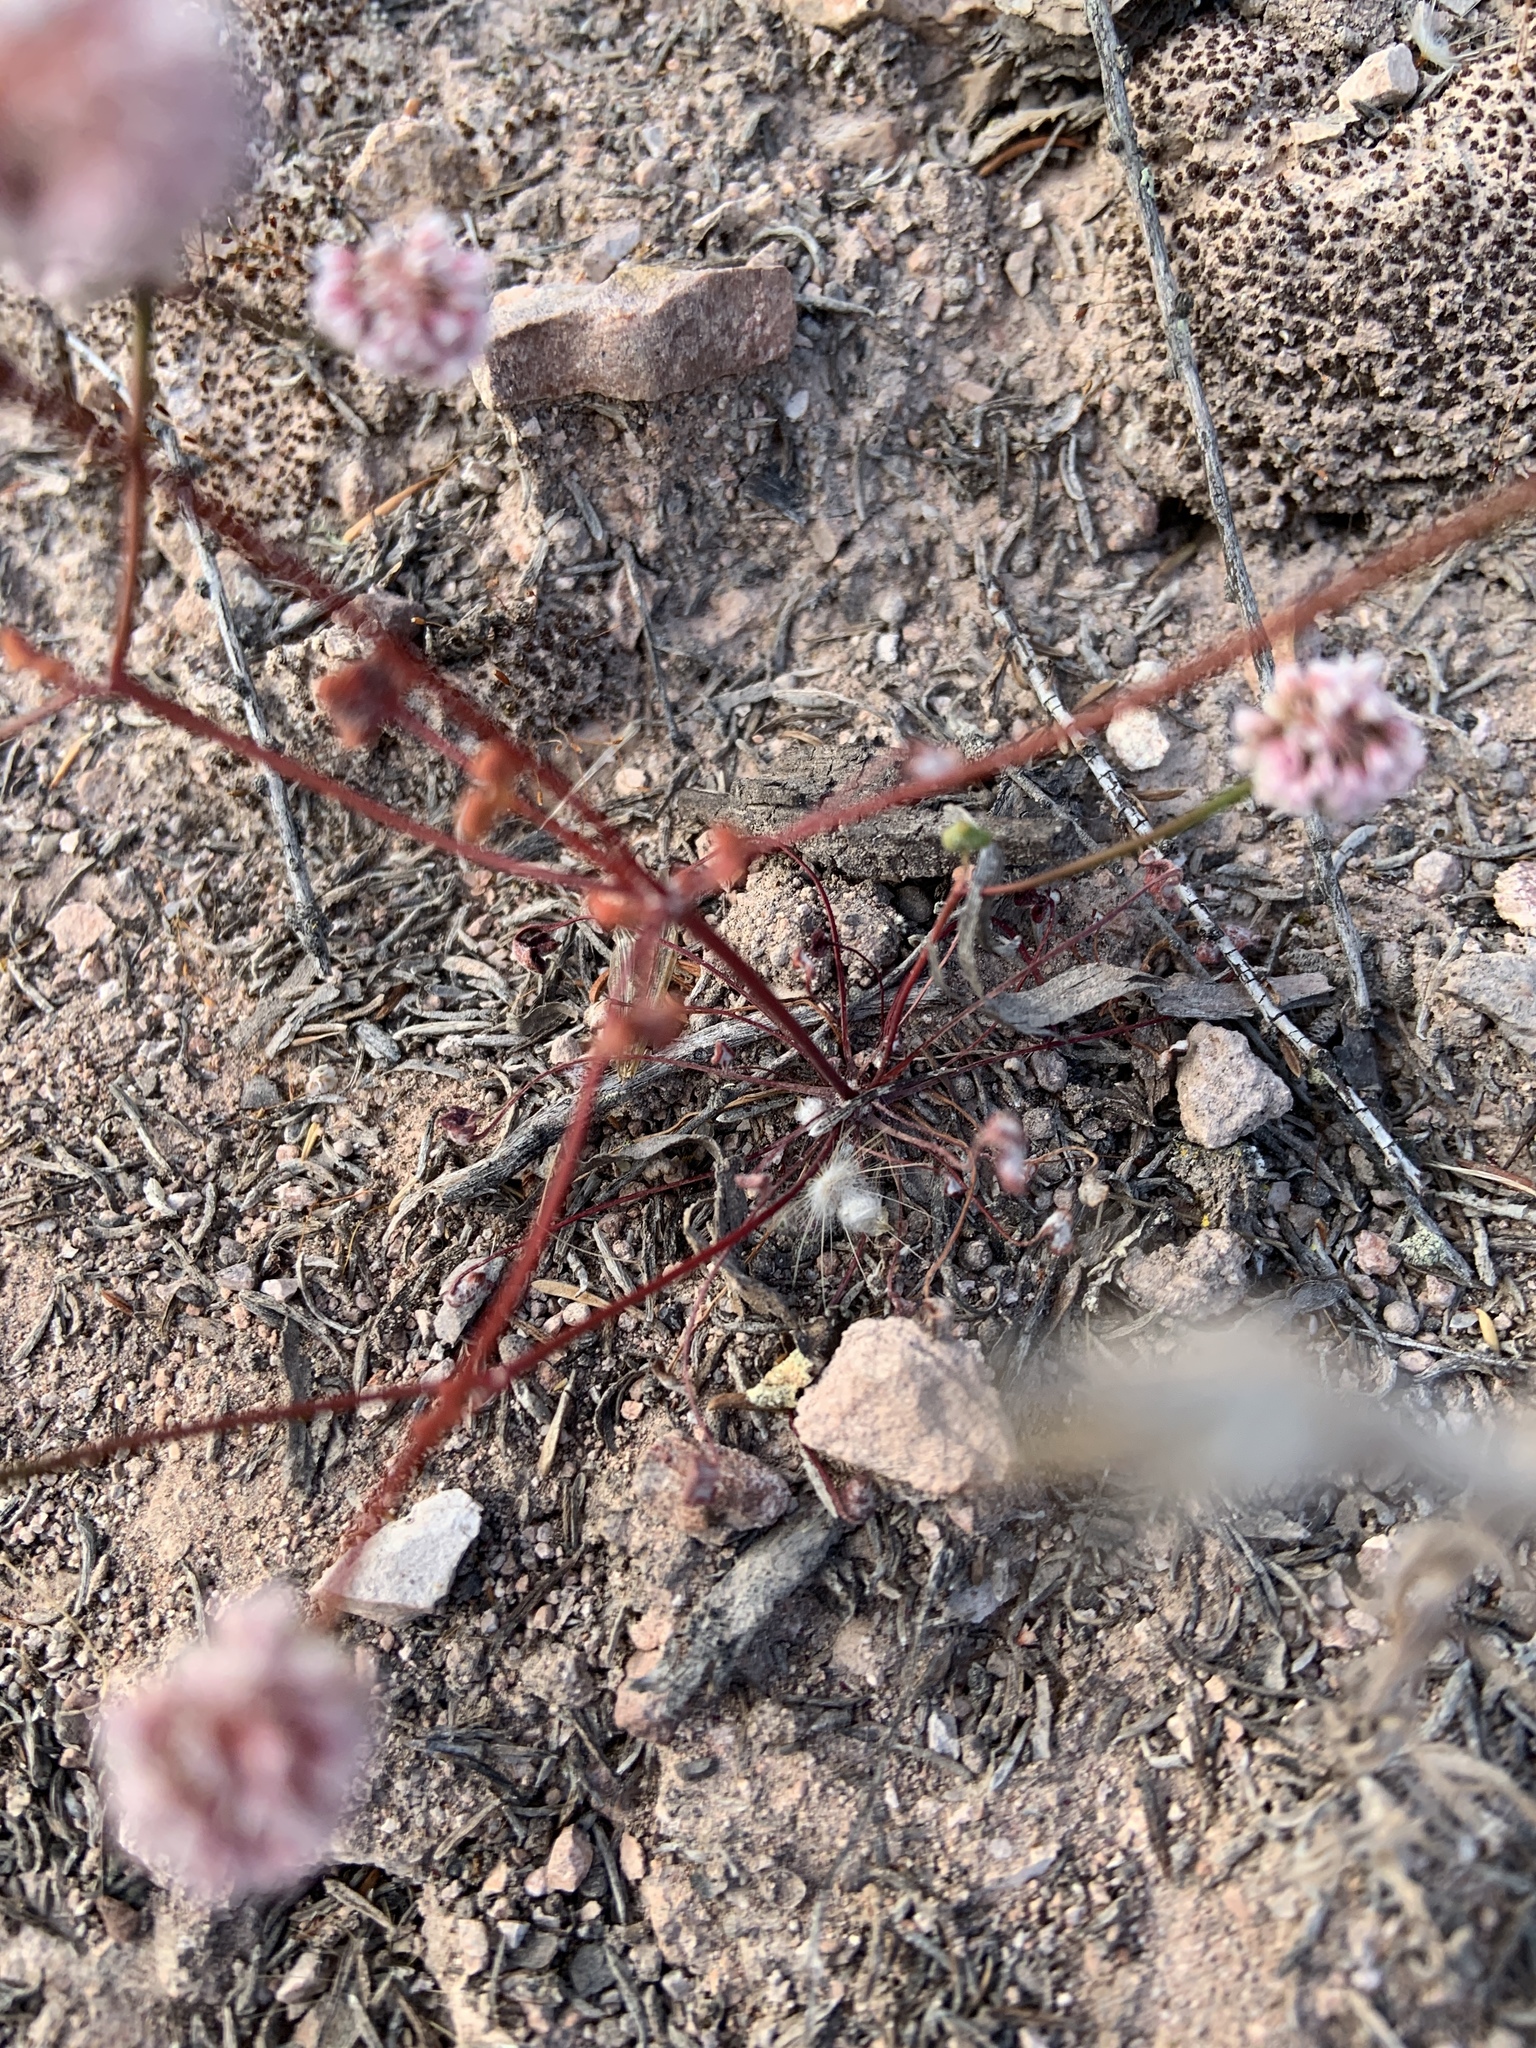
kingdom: Plantae
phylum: Tracheophyta
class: Magnoliopsida
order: Caryophyllales
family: Polygonaceae
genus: Eriogonum
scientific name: Eriogonum nortonii
